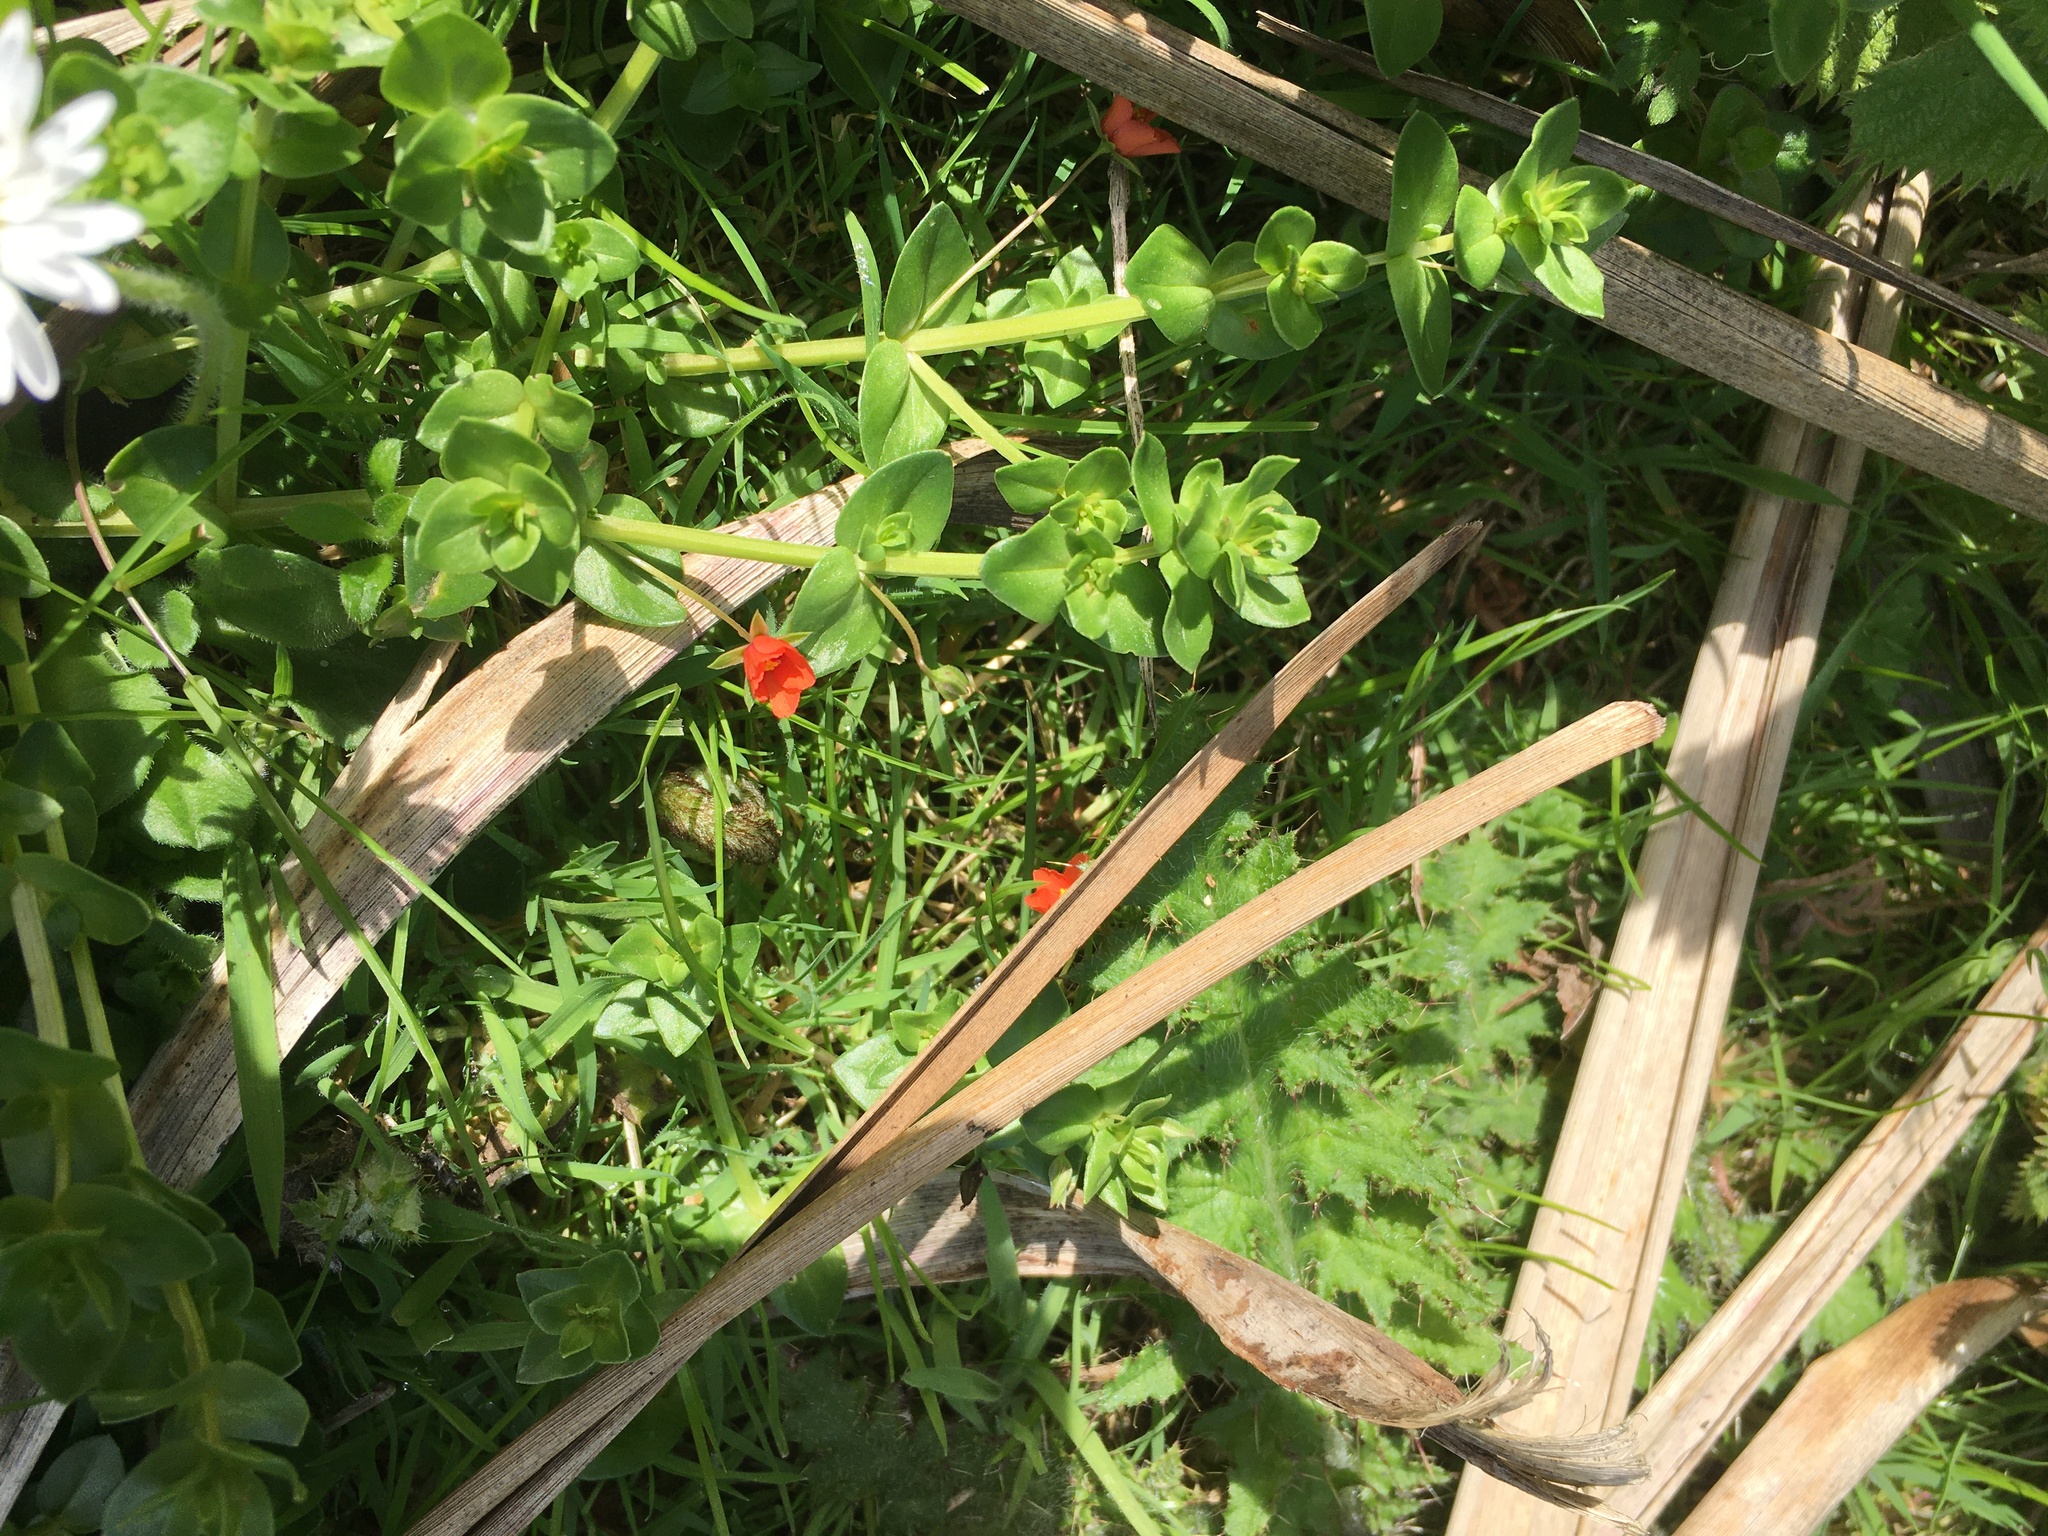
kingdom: Plantae
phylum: Tracheophyta
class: Magnoliopsida
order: Ericales
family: Primulaceae
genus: Lysimachia
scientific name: Lysimachia arvensis
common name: Scarlet pimpernel
